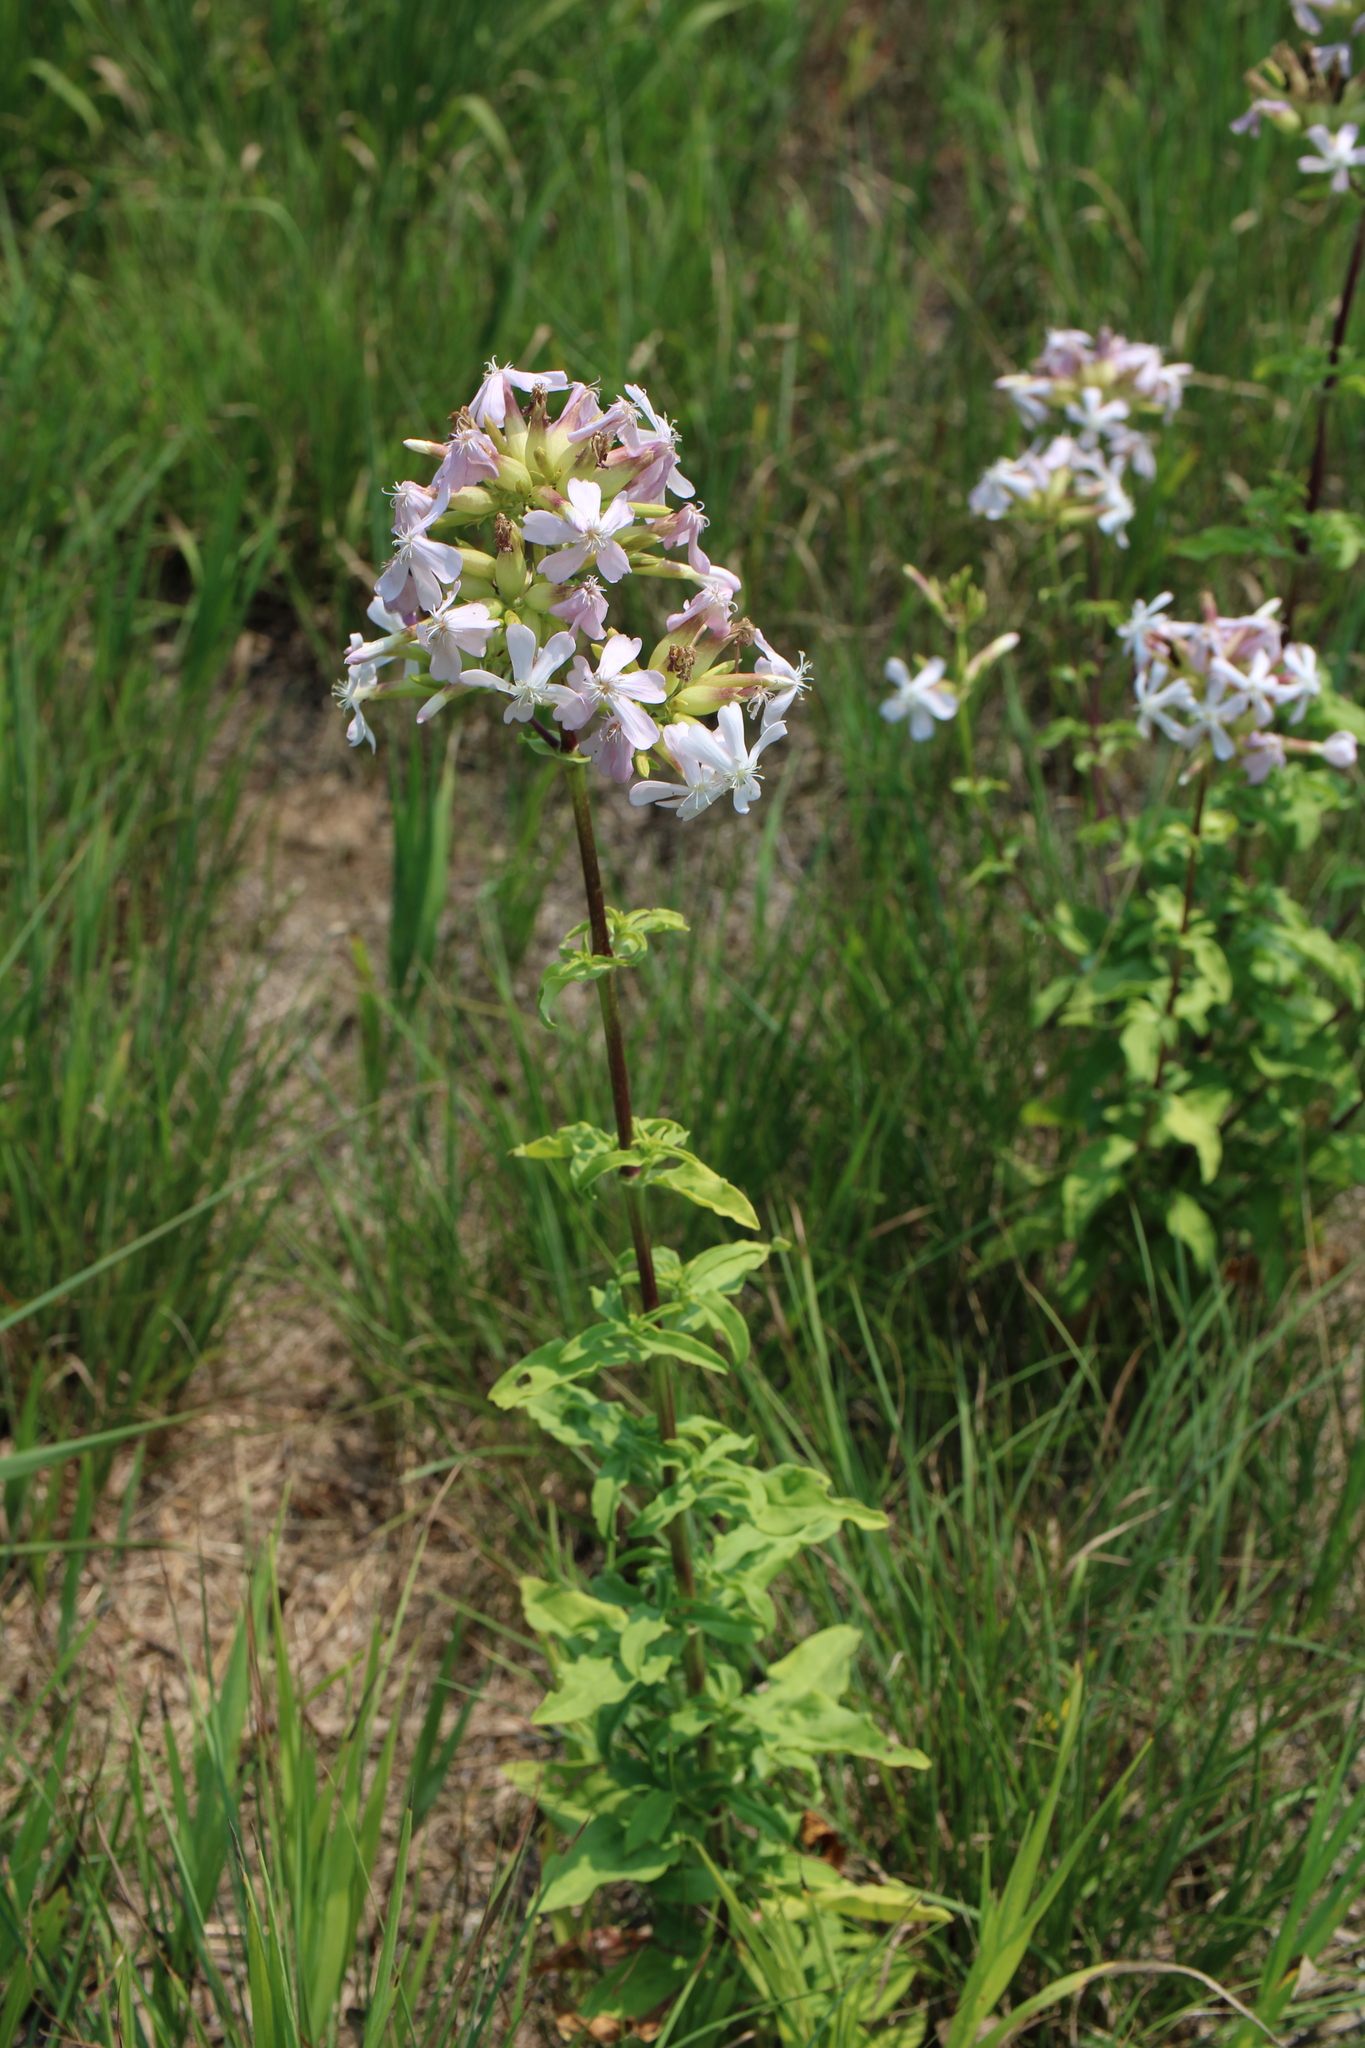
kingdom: Plantae
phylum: Tracheophyta
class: Magnoliopsida
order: Caryophyllales
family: Caryophyllaceae
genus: Saponaria
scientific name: Saponaria officinalis
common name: Soapwort
